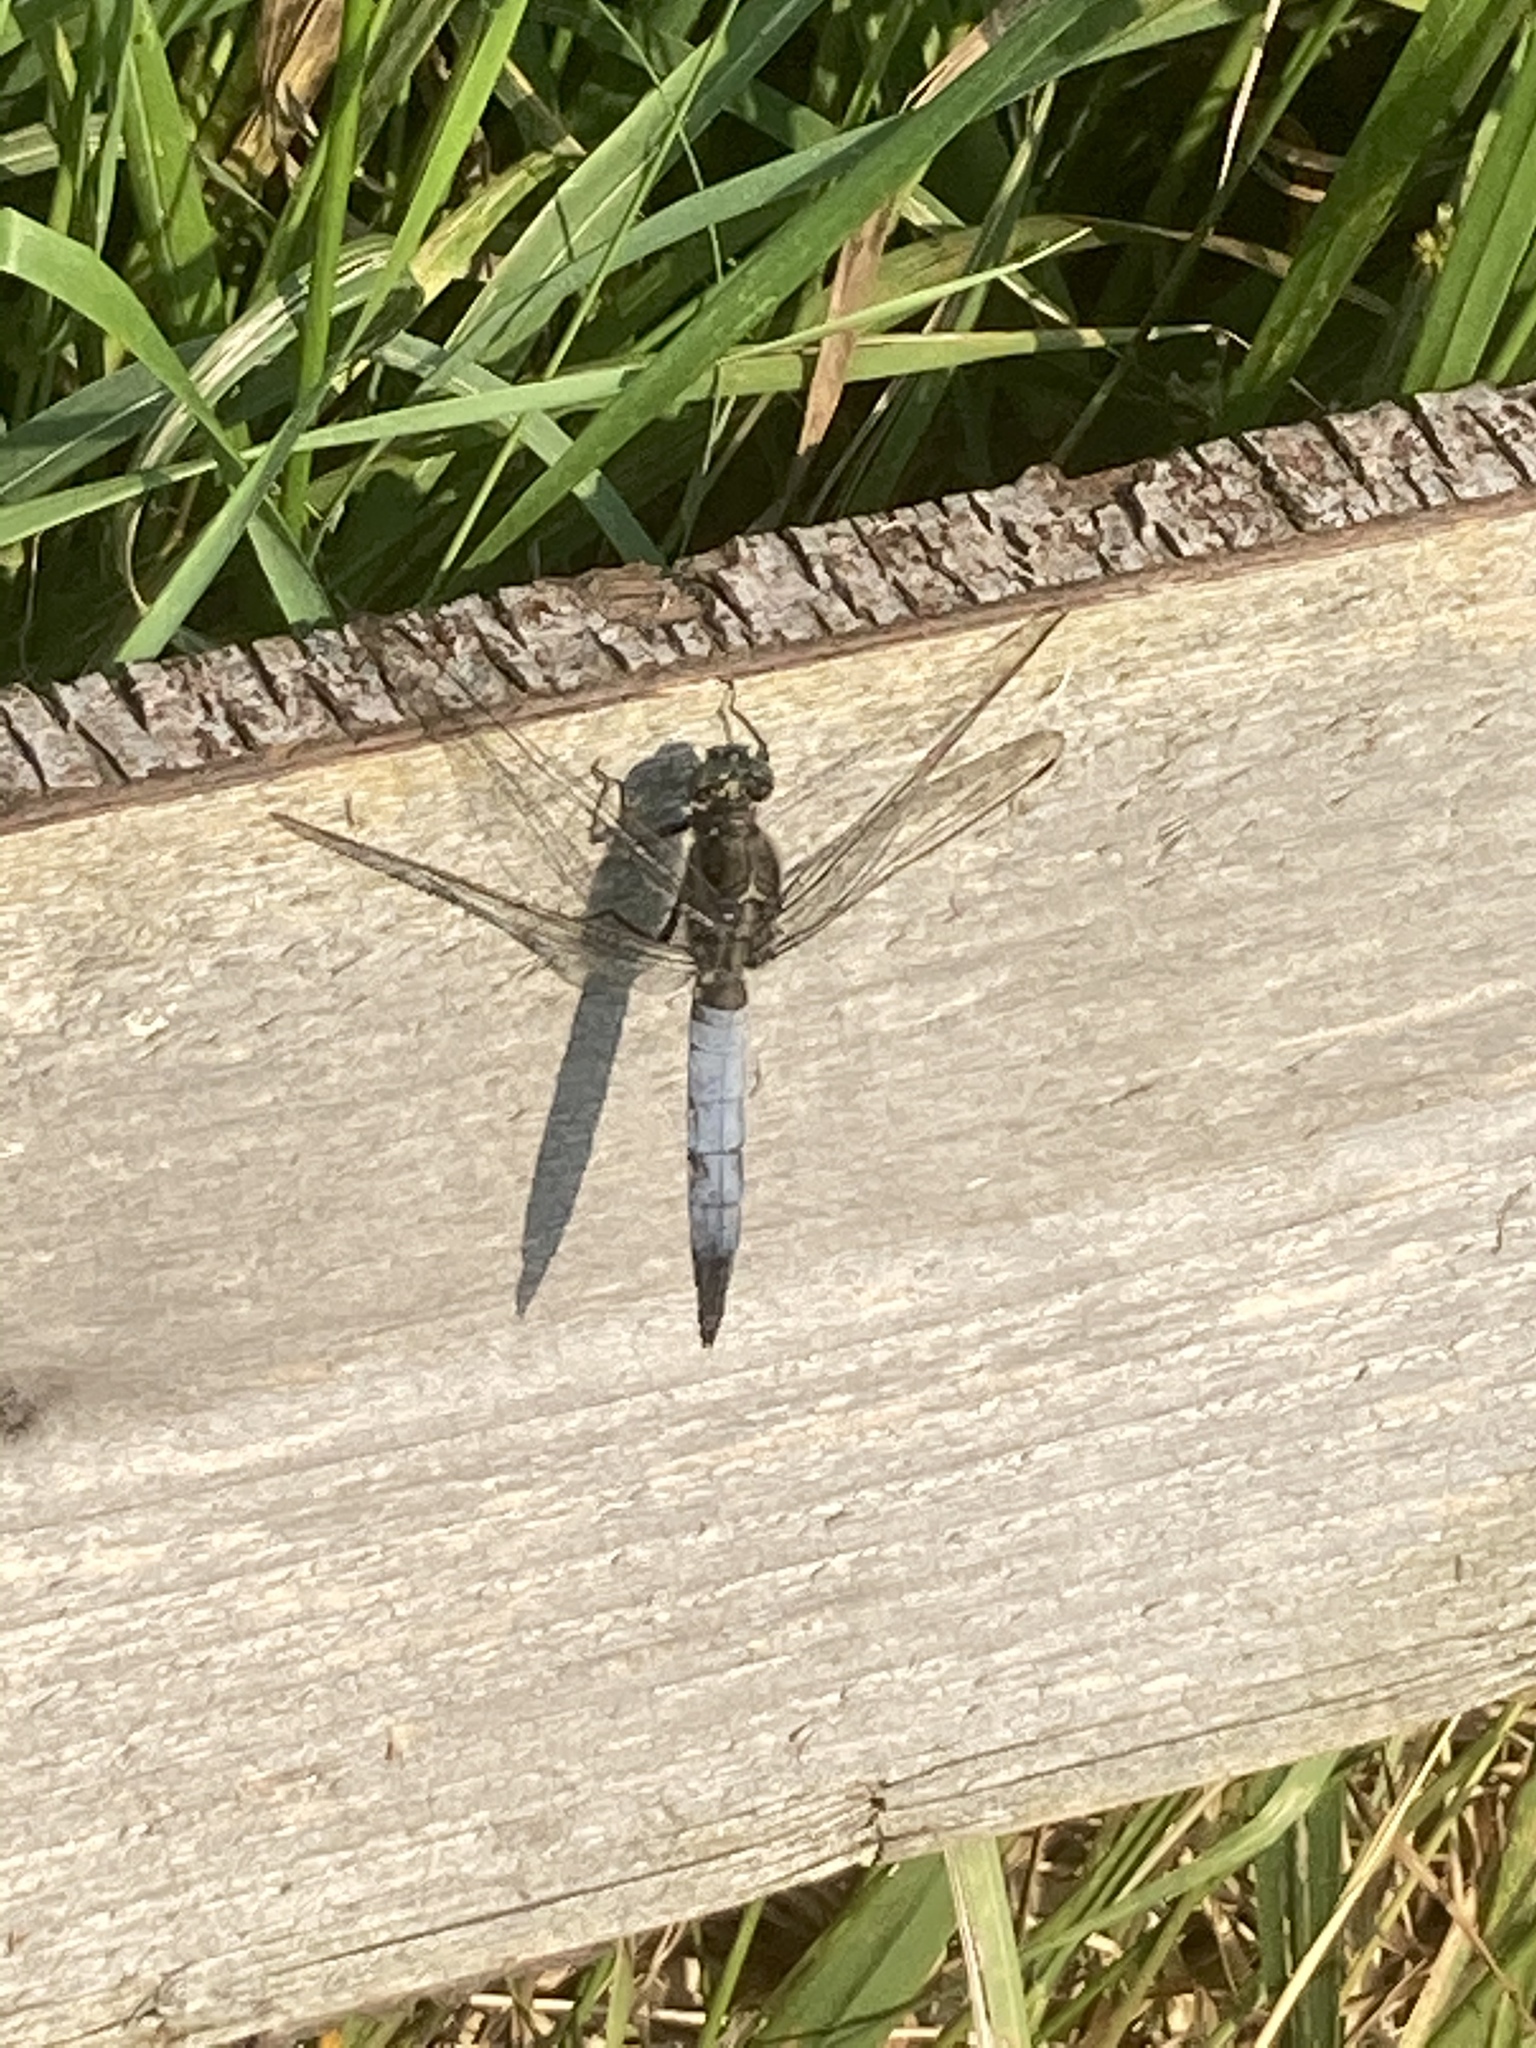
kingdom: Animalia
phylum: Arthropoda
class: Insecta
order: Odonata
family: Libellulidae
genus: Orthetrum
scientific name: Orthetrum cancellatum
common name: Black-tailed skimmer
